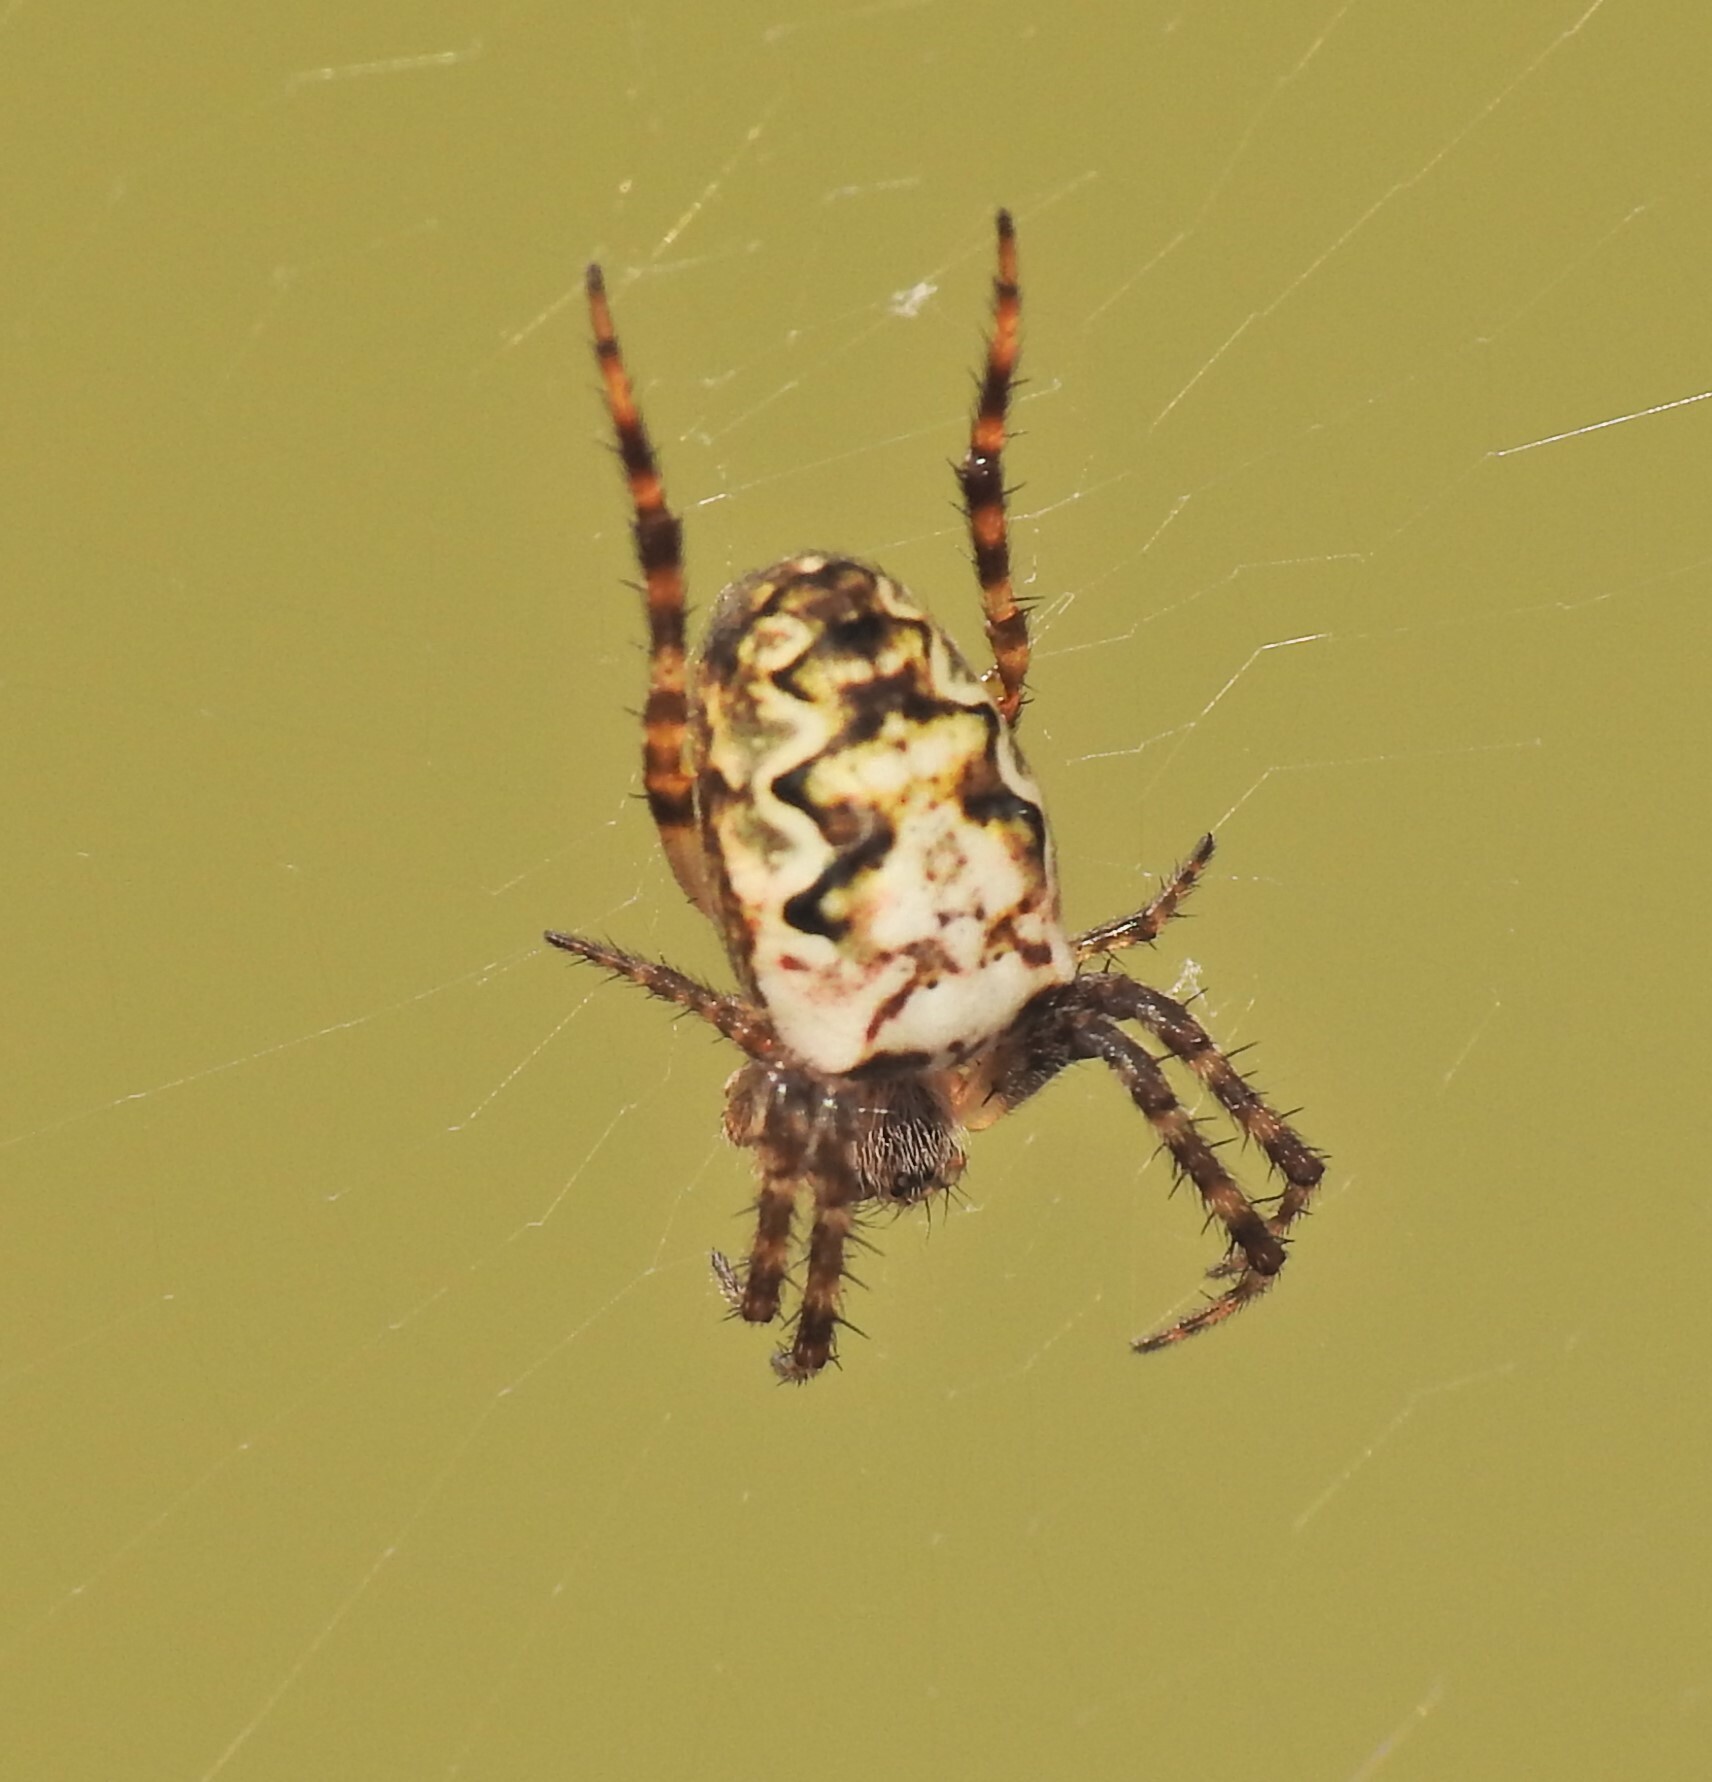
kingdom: Animalia
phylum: Arthropoda
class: Arachnida
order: Araneae
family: Araneidae
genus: Plebs
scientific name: Plebs eburnus
